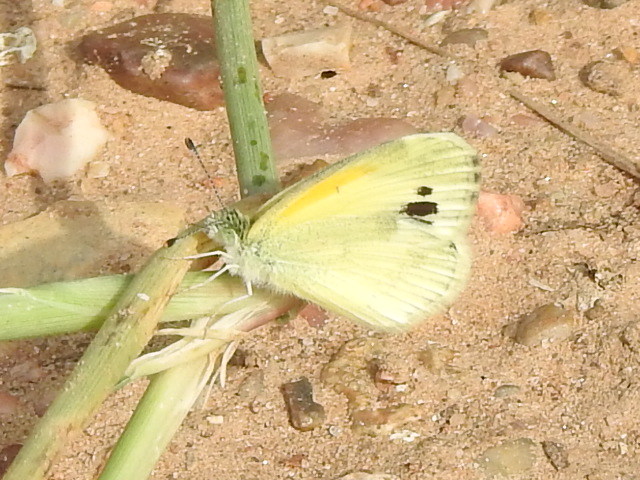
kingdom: Animalia
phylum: Arthropoda
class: Insecta
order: Lepidoptera
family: Pieridae
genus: Nathalis
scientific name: Nathalis iole
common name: Dainty sulphur
